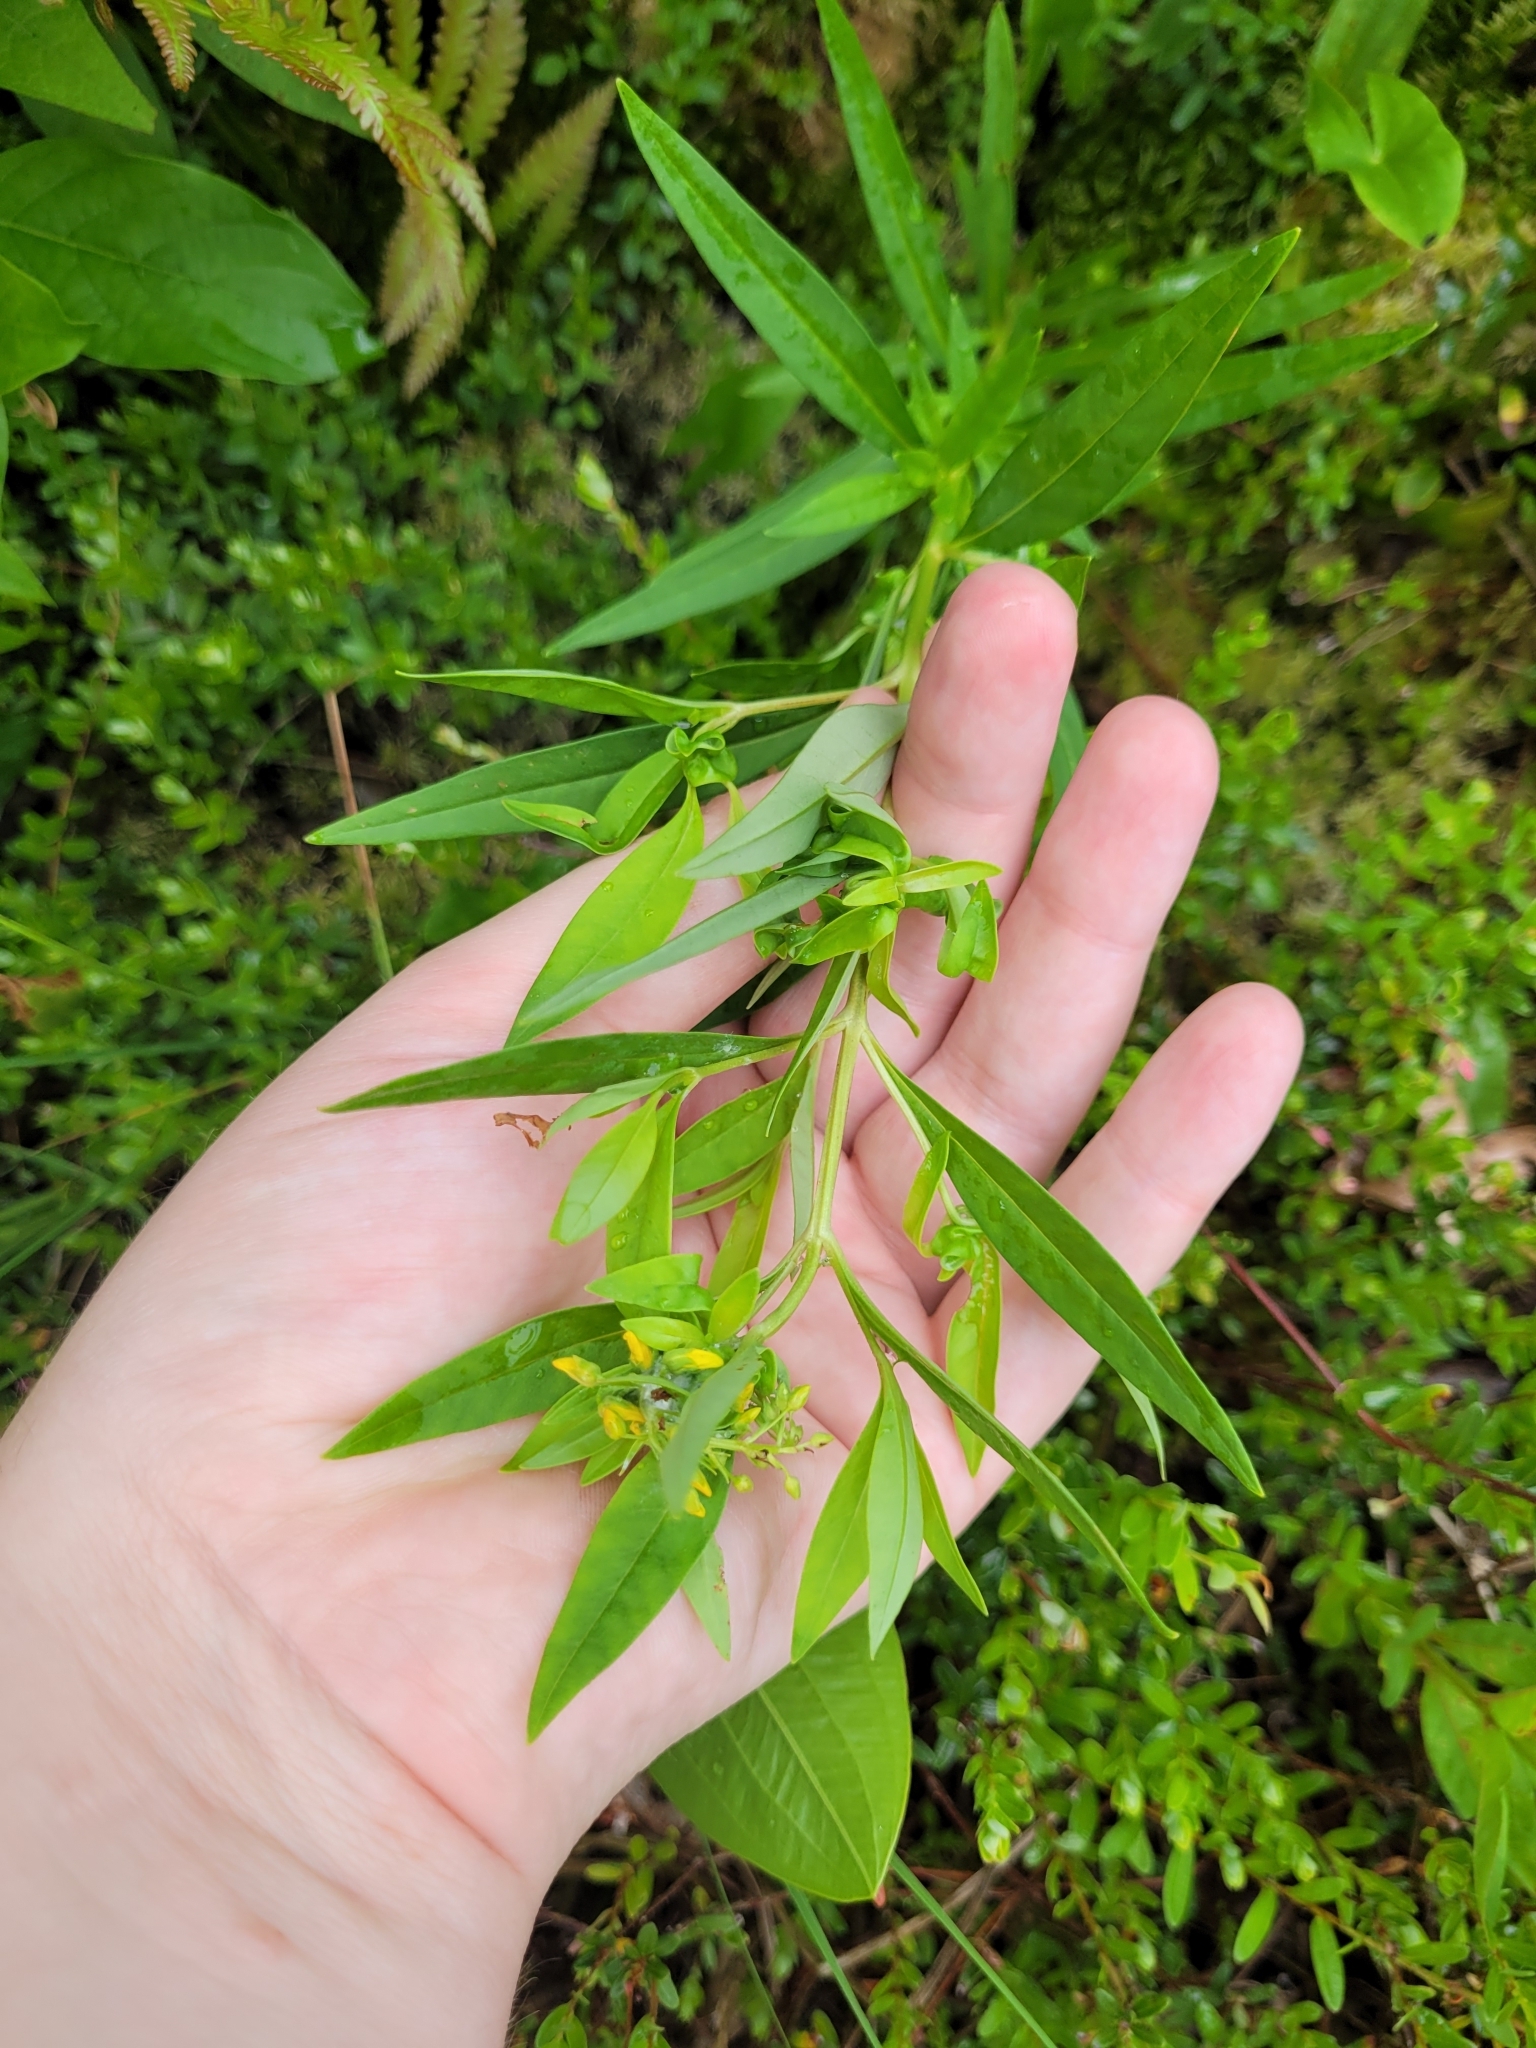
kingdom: Plantae
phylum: Tracheophyta
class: Magnoliopsida
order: Ericales
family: Primulaceae
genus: Lysimachia
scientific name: Lysimachia terrestris
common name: Lake loosestrife
